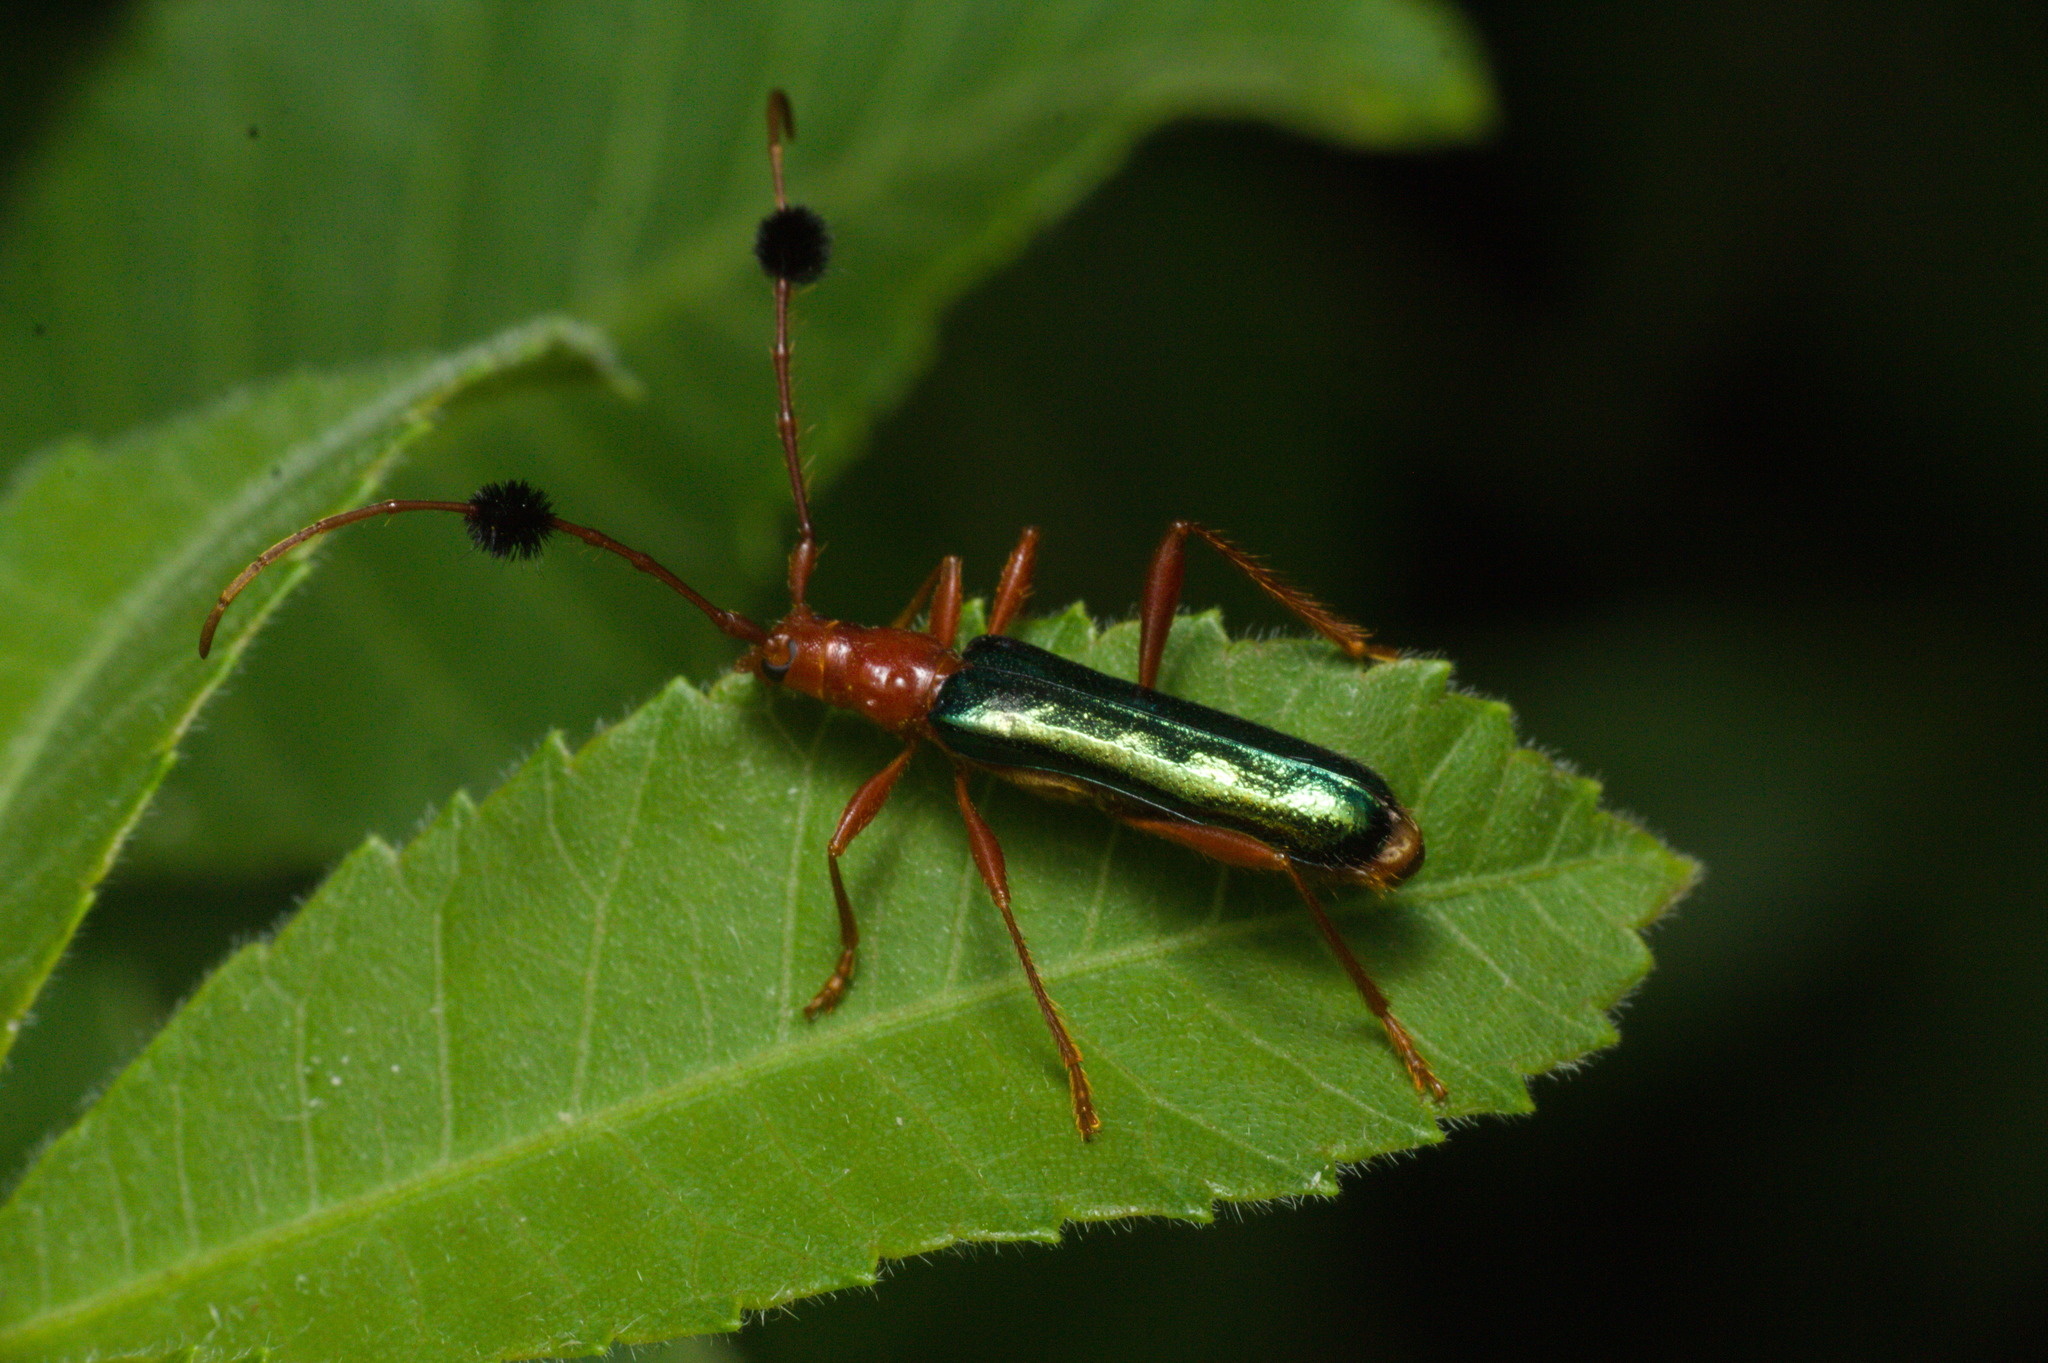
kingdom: Animalia
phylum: Arthropoda
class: Insecta
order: Coleoptera
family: Cerambycidae
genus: Paromoeocerus
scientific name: Paromoeocerus barbicornis
